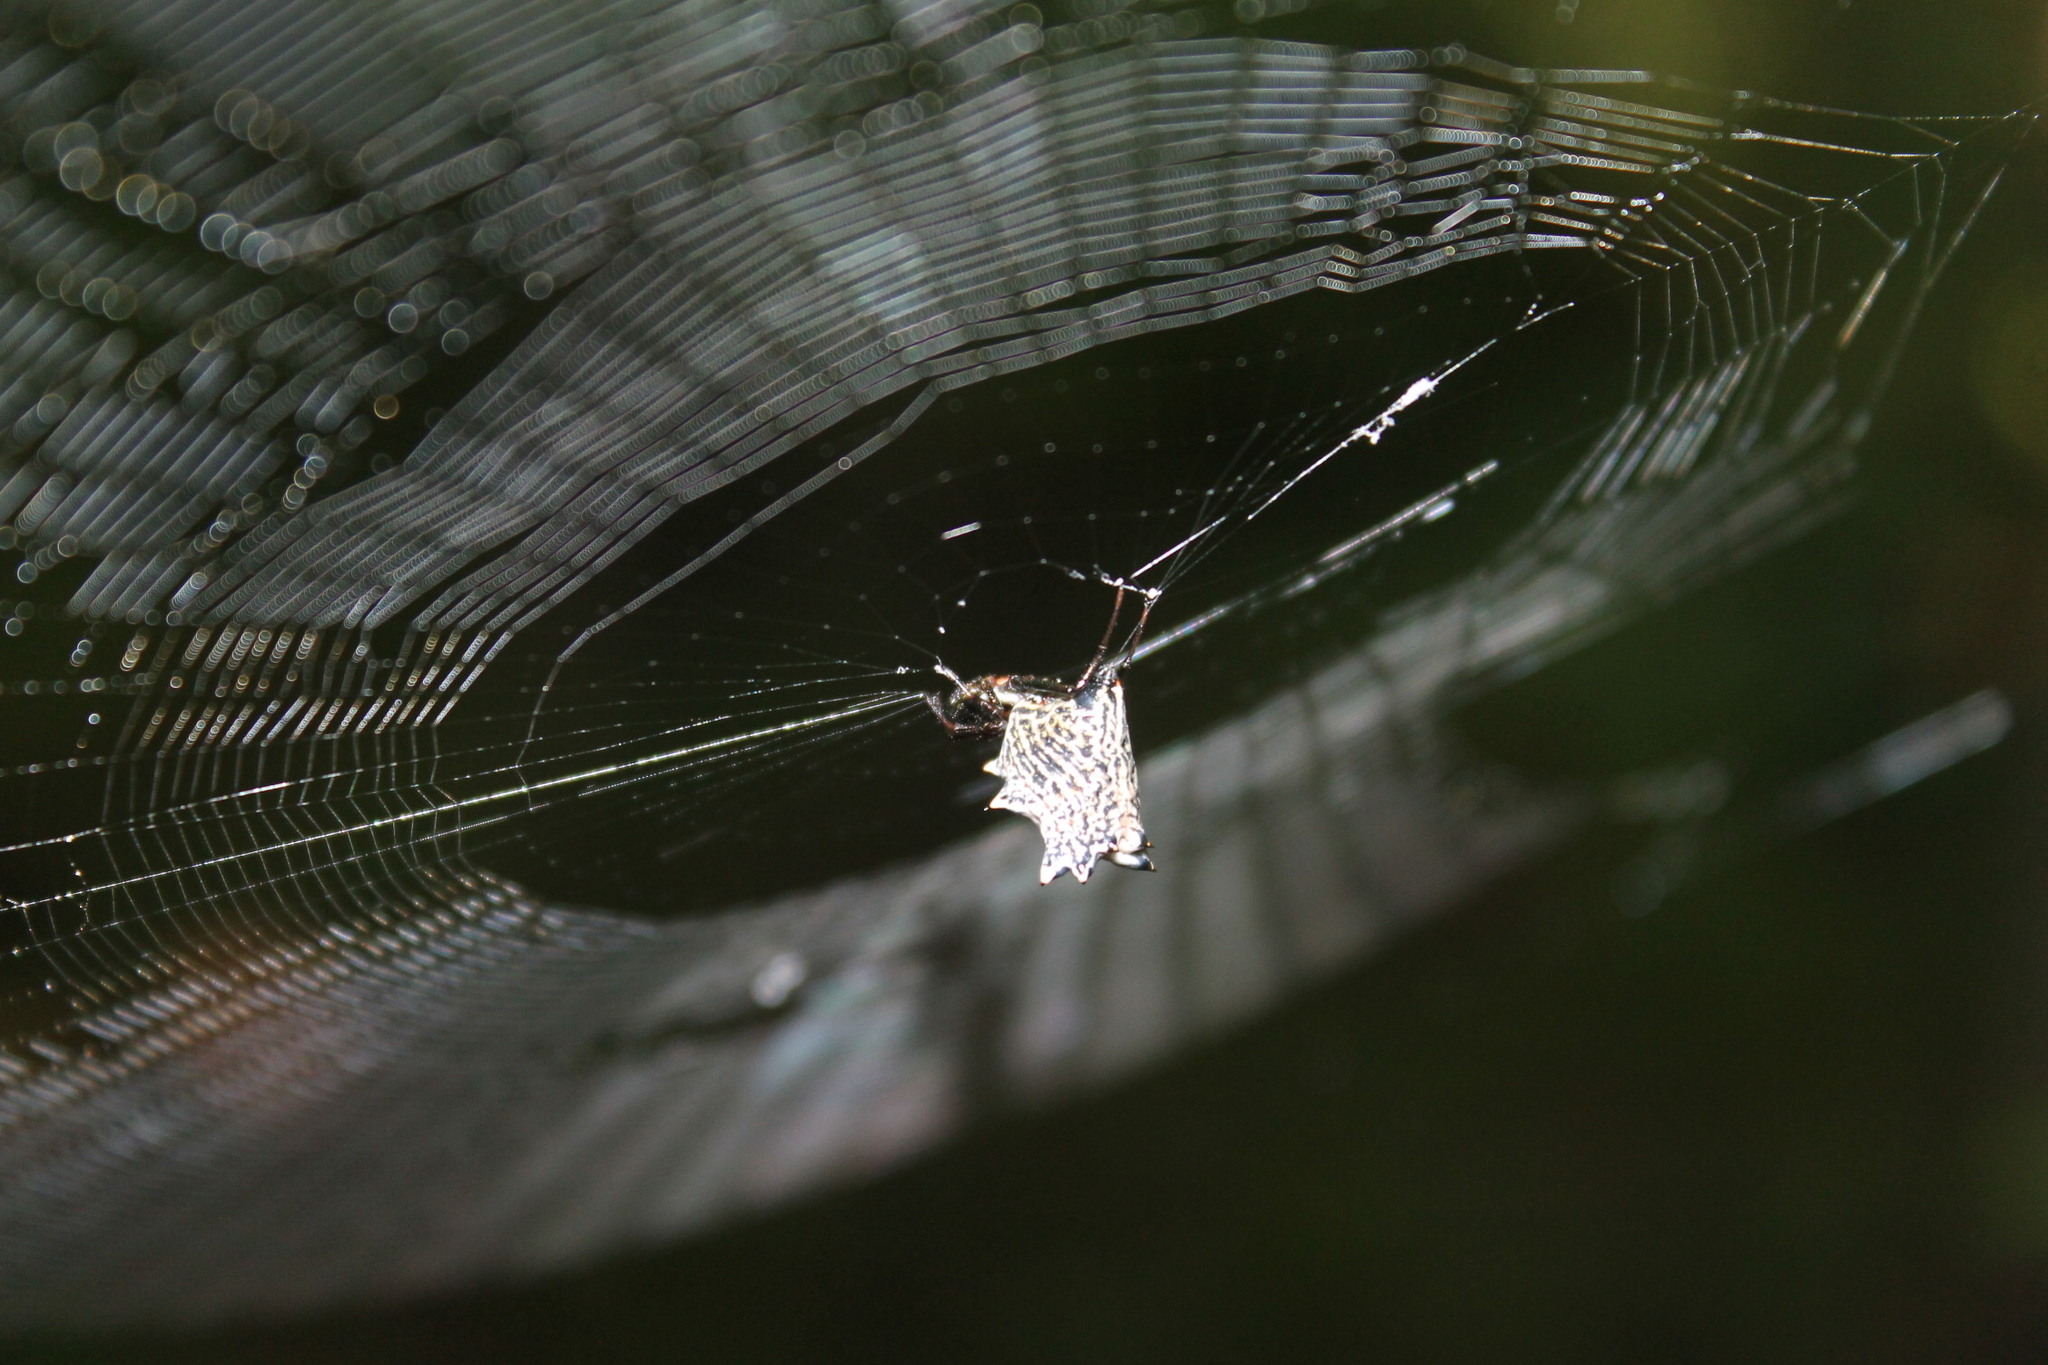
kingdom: Animalia
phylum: Arthropoda
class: Arachnida
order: Araneae
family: Araneidae
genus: Micrathena
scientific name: Micrathena gracilis
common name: Orb weavers
